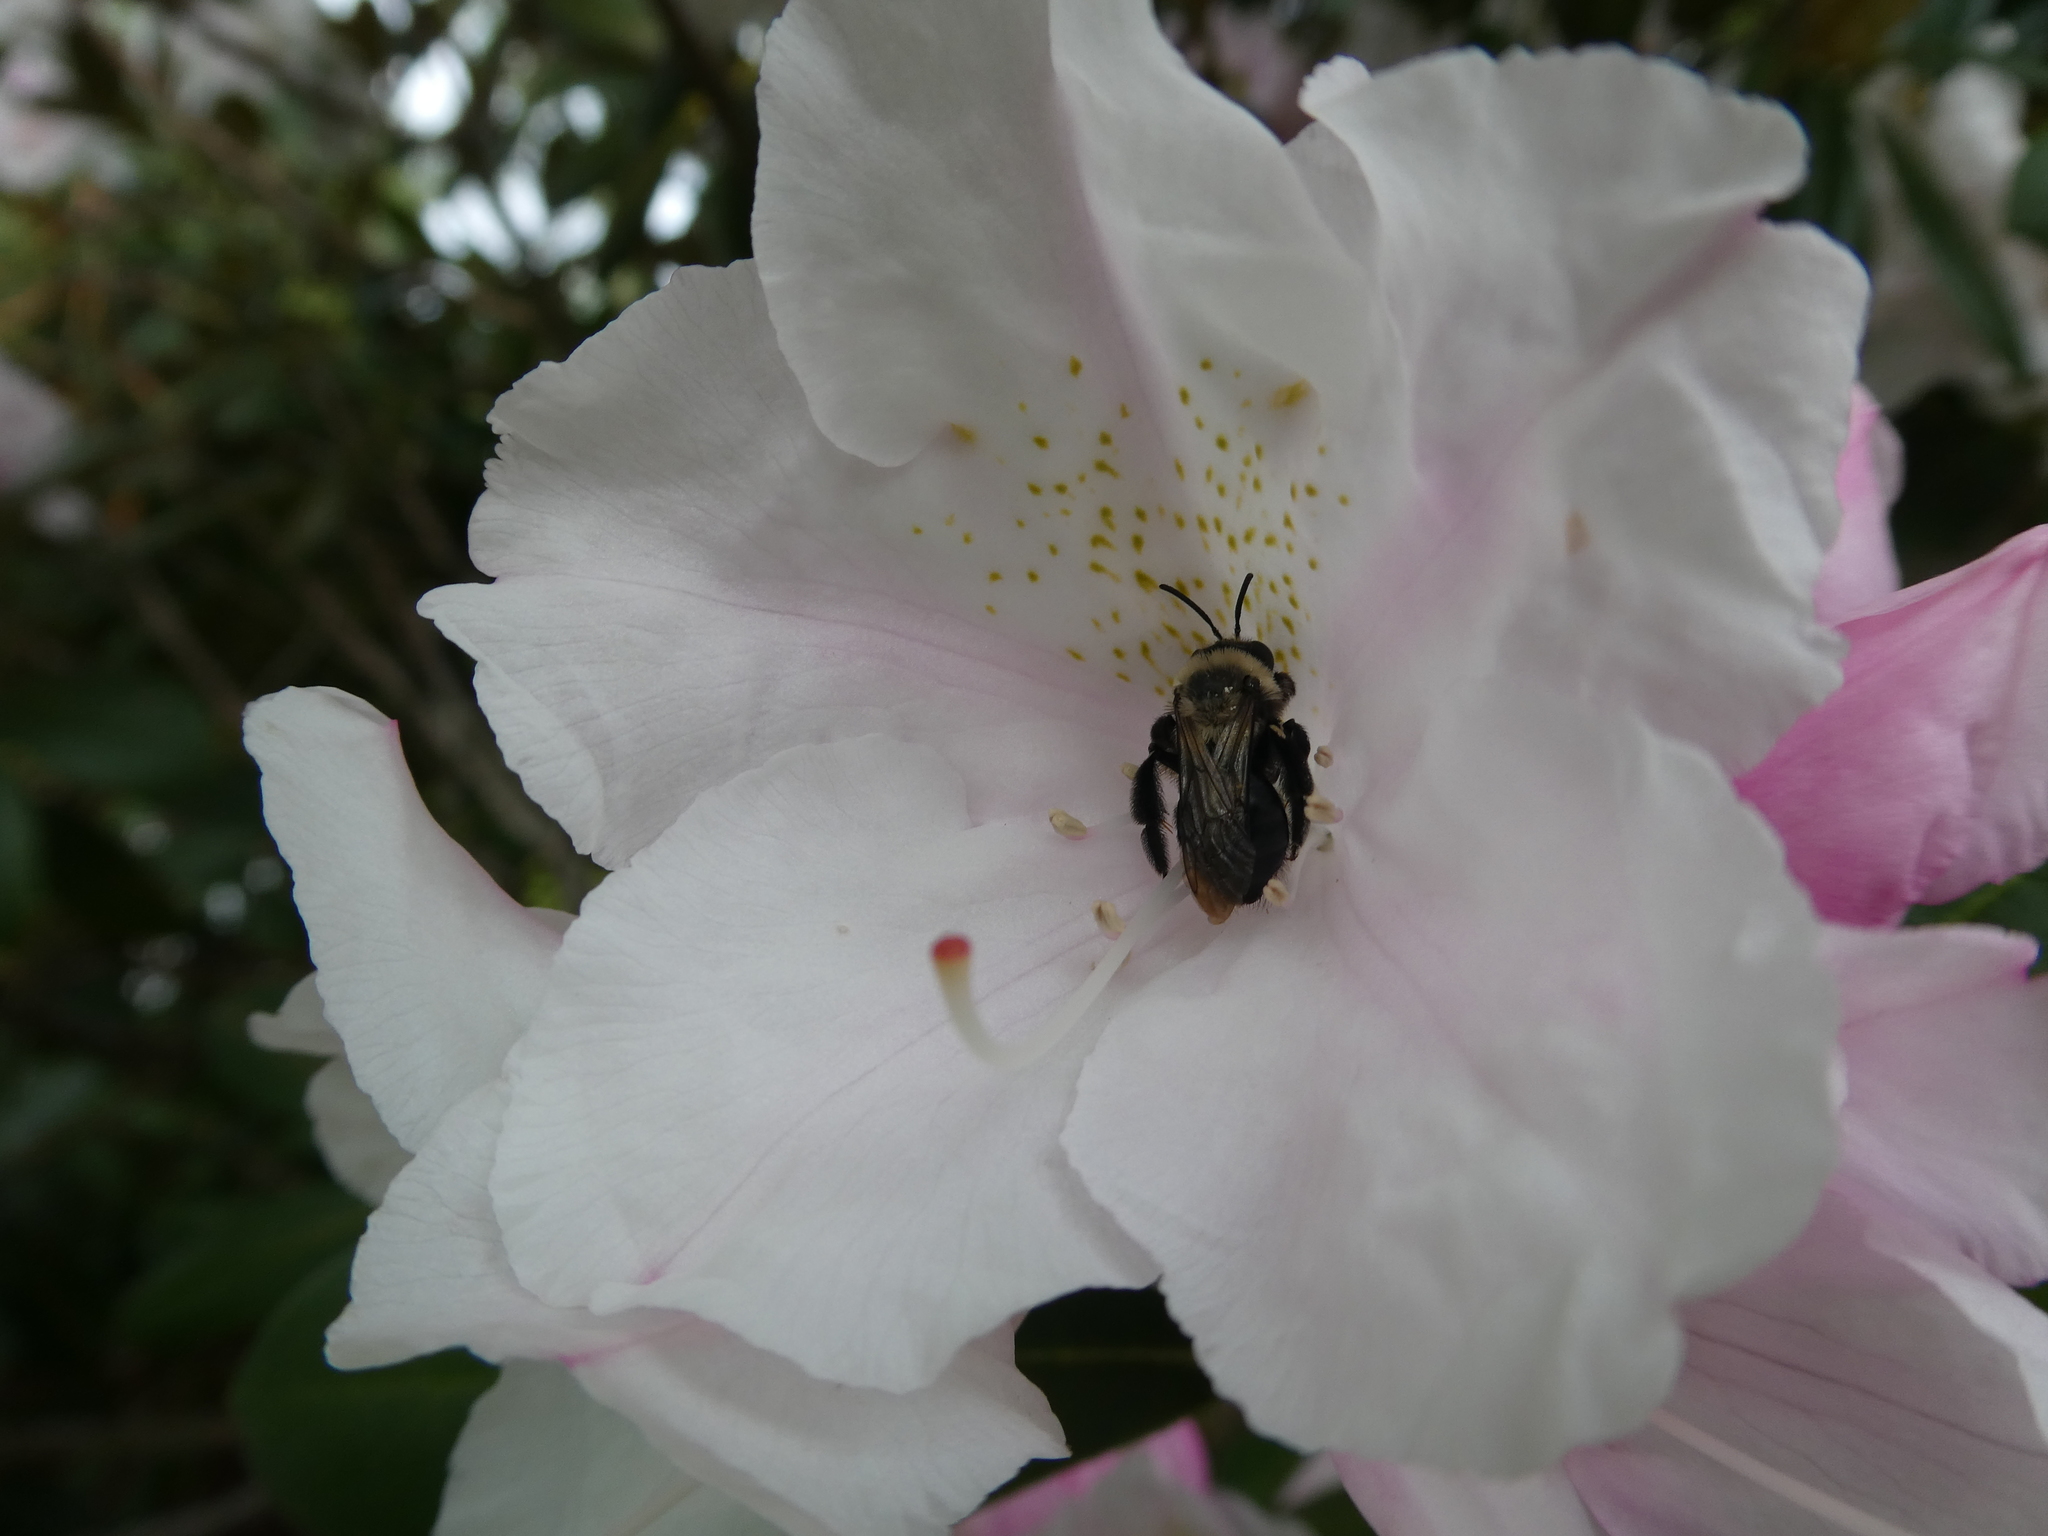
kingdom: Animalia
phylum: Arthropoda
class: Insecta
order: Hymenoptera
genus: Melandrena
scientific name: Melandrena
